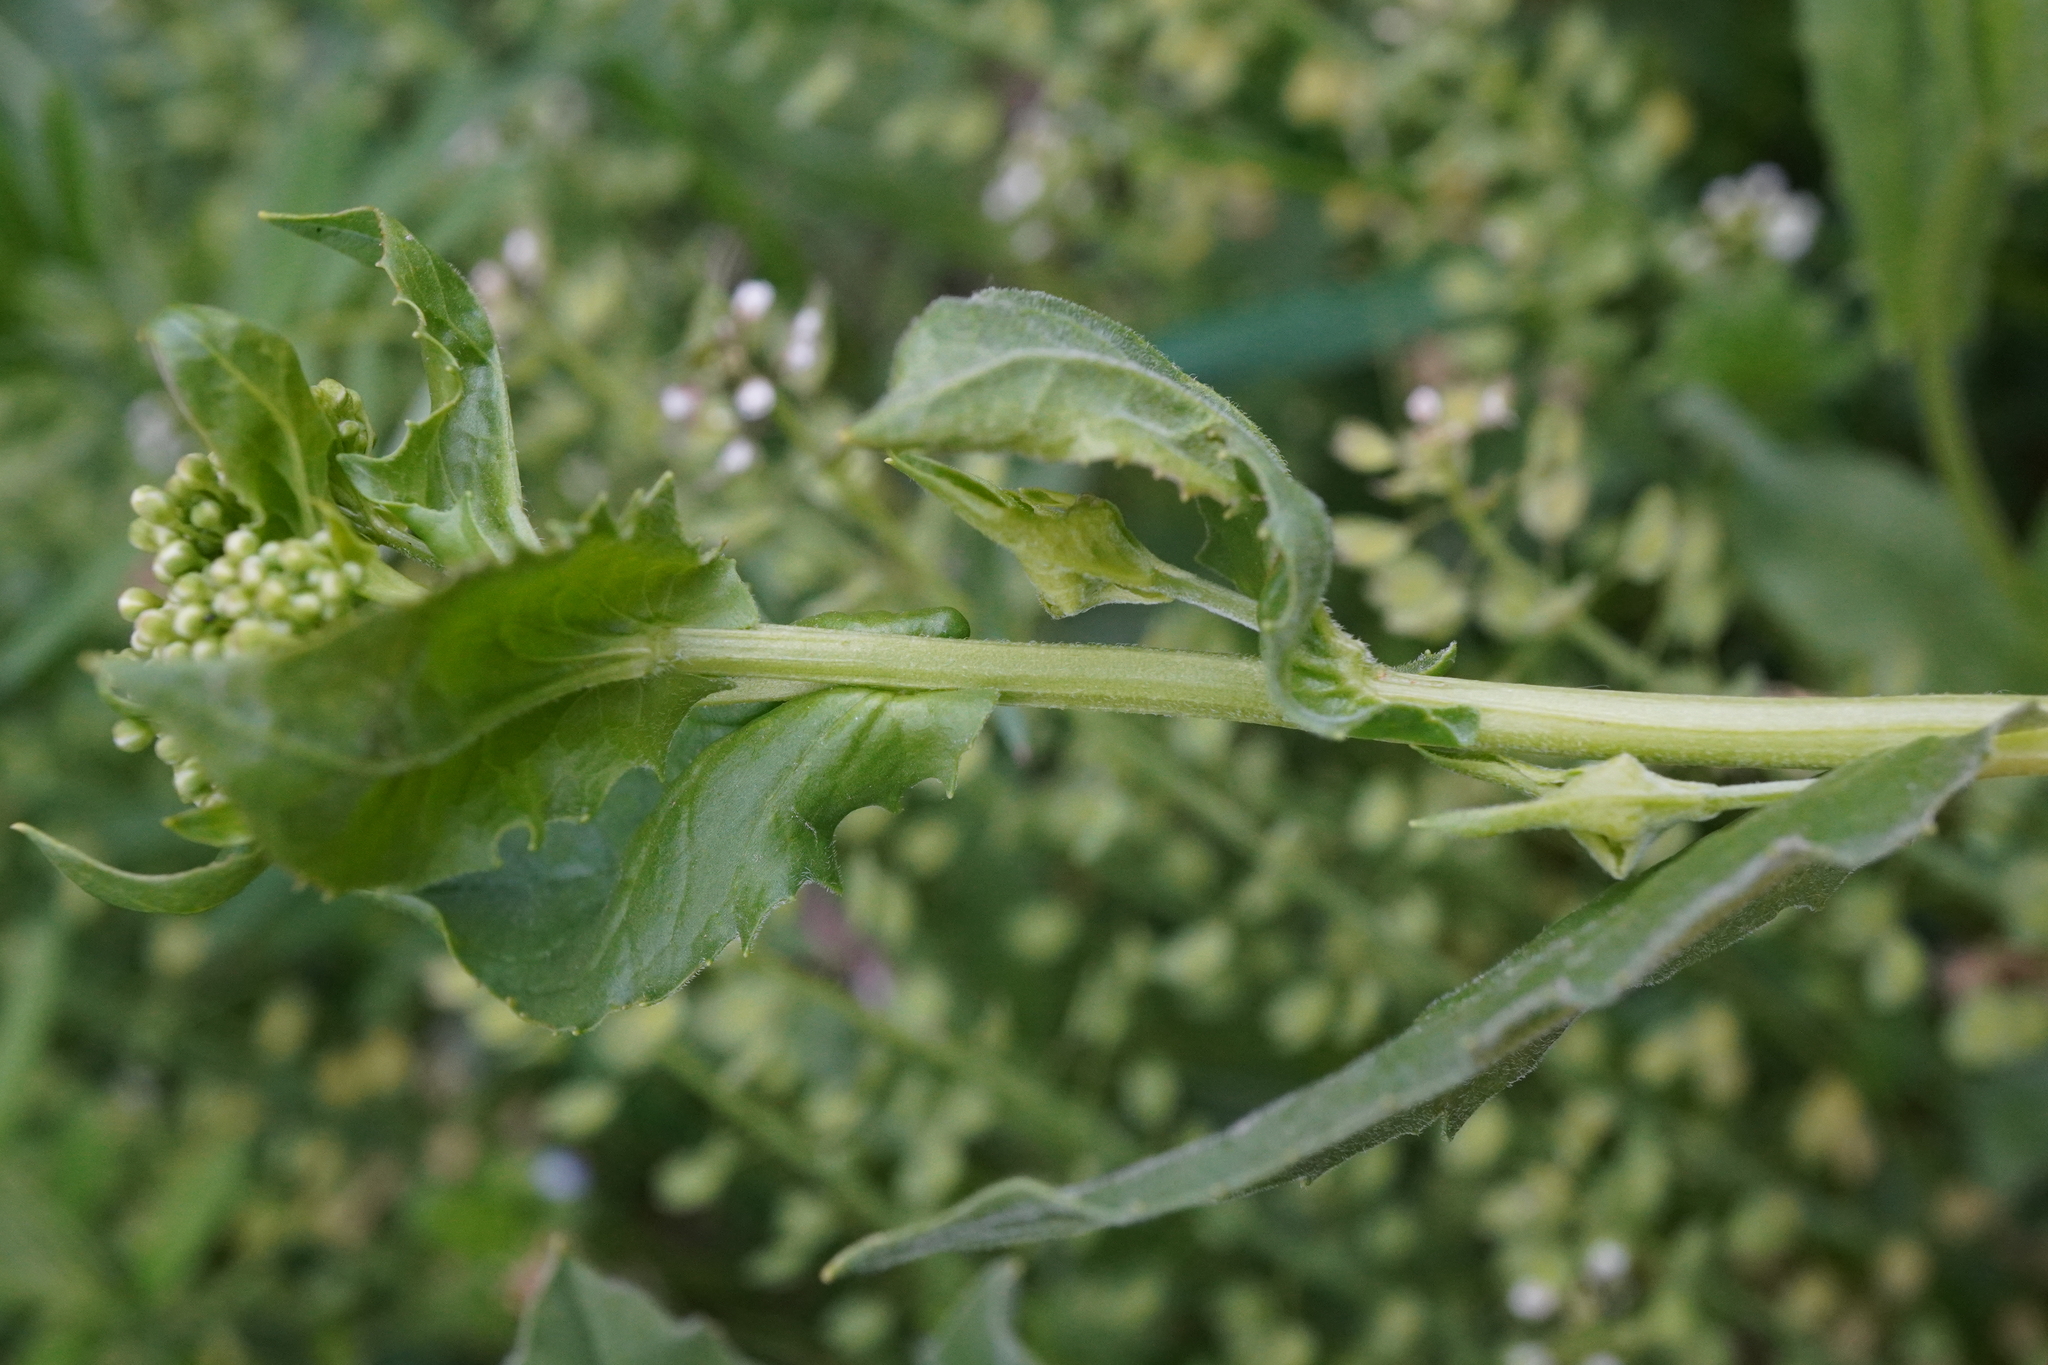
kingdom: Plantae
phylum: Tracheophyta
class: Magnoliopsida
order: Brassicales
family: Brassicaceae
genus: Lepidium
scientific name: Lepidium draba
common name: Hoary cress
